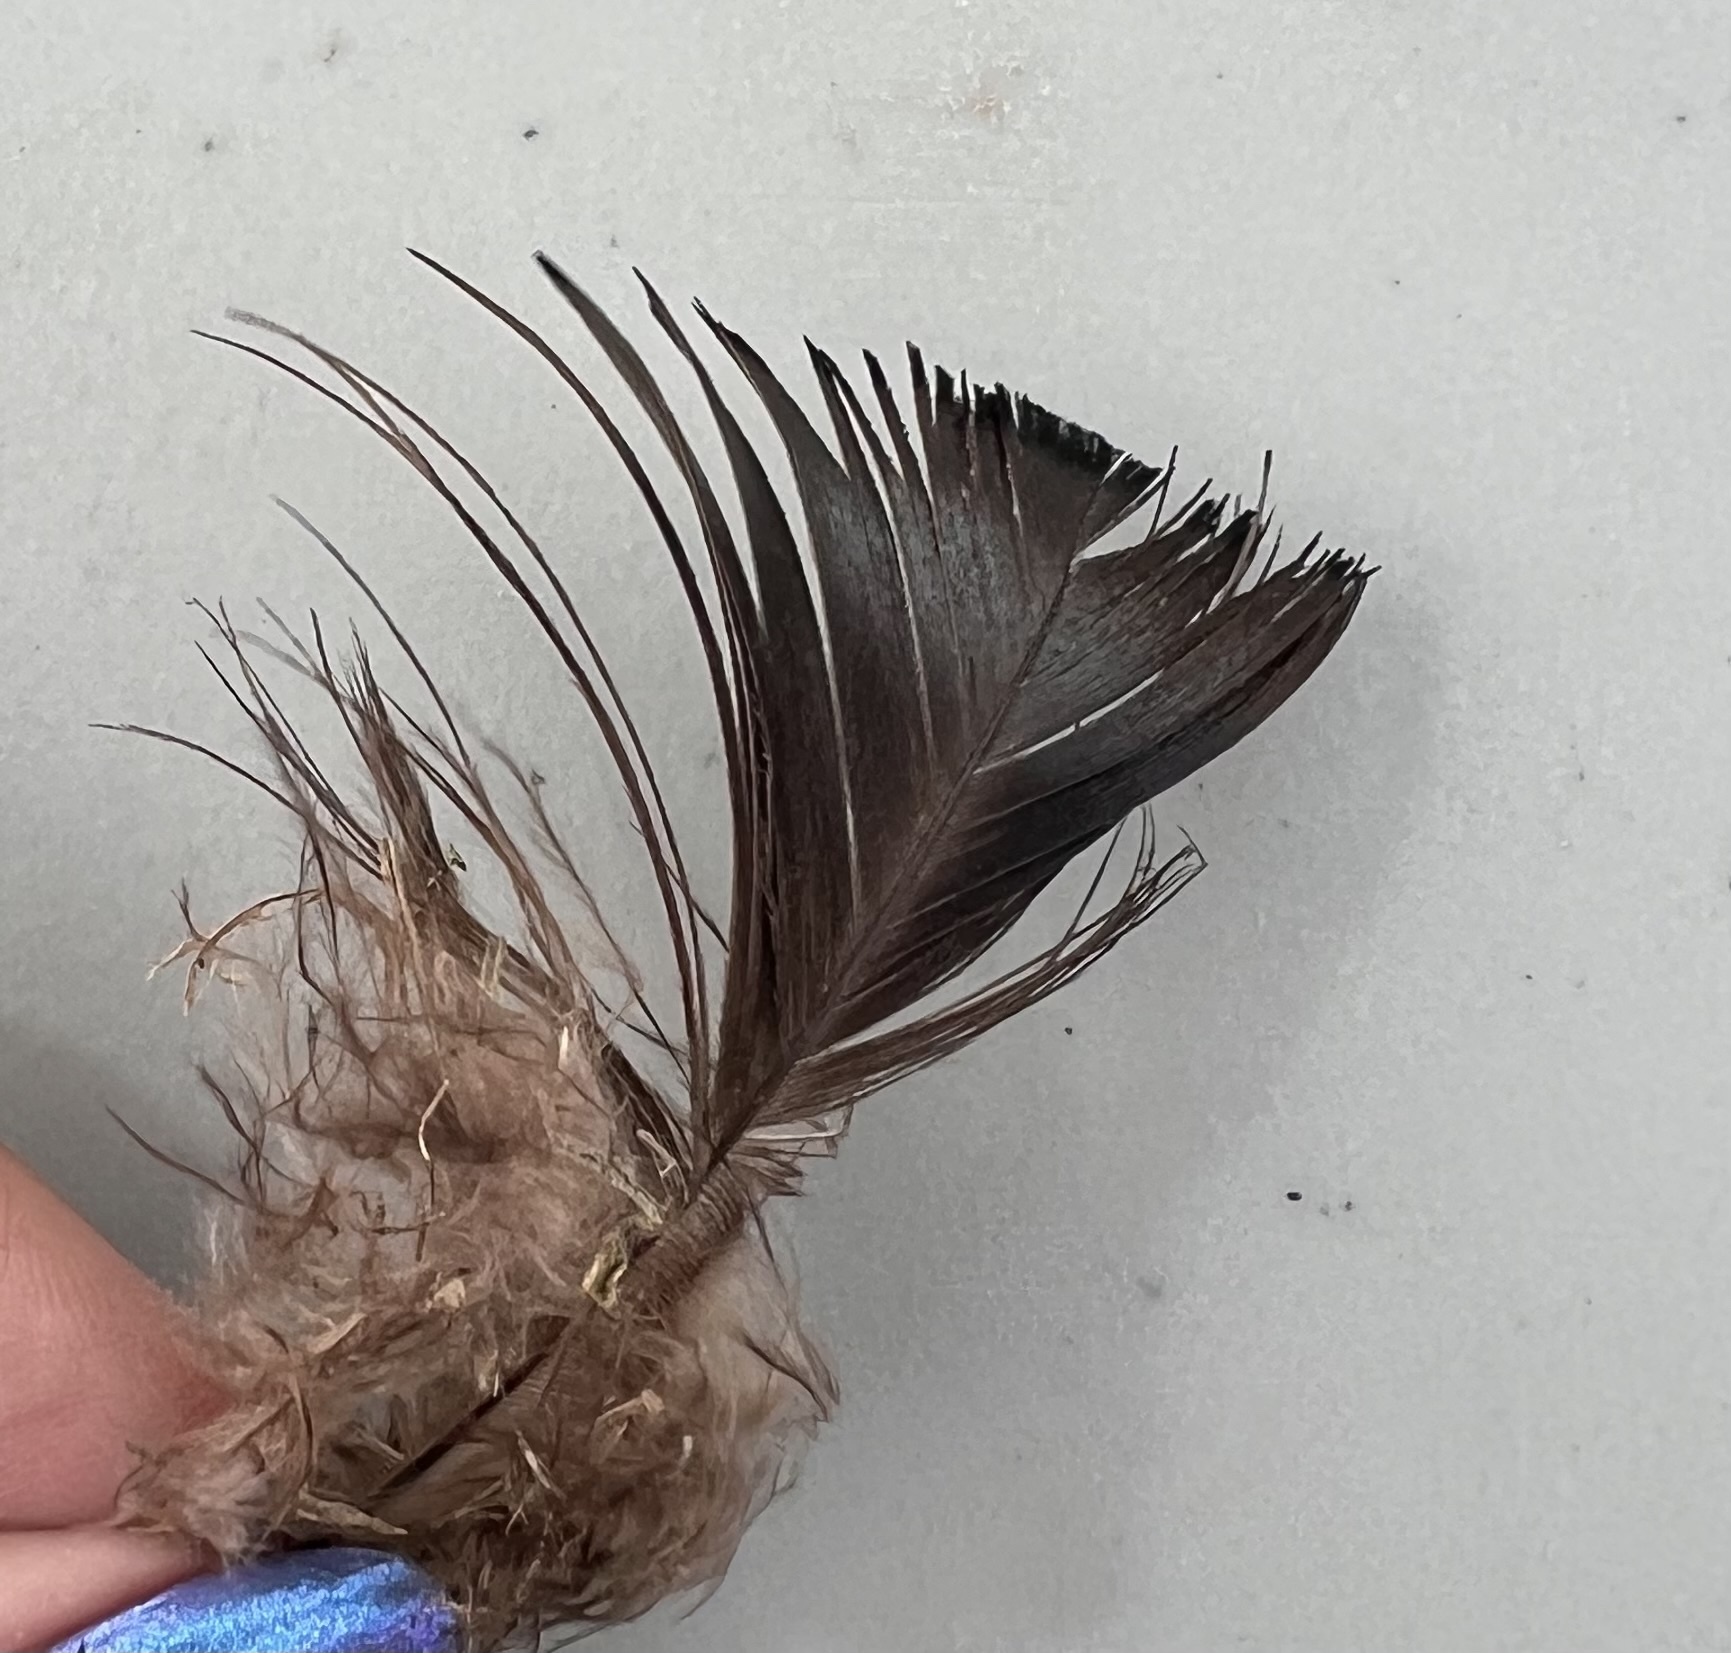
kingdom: Animalia
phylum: Chordata
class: Aves
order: Galliformes
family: Phasianidae
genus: Meleagris
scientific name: Meleagris gallopavo
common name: Wild turkey
